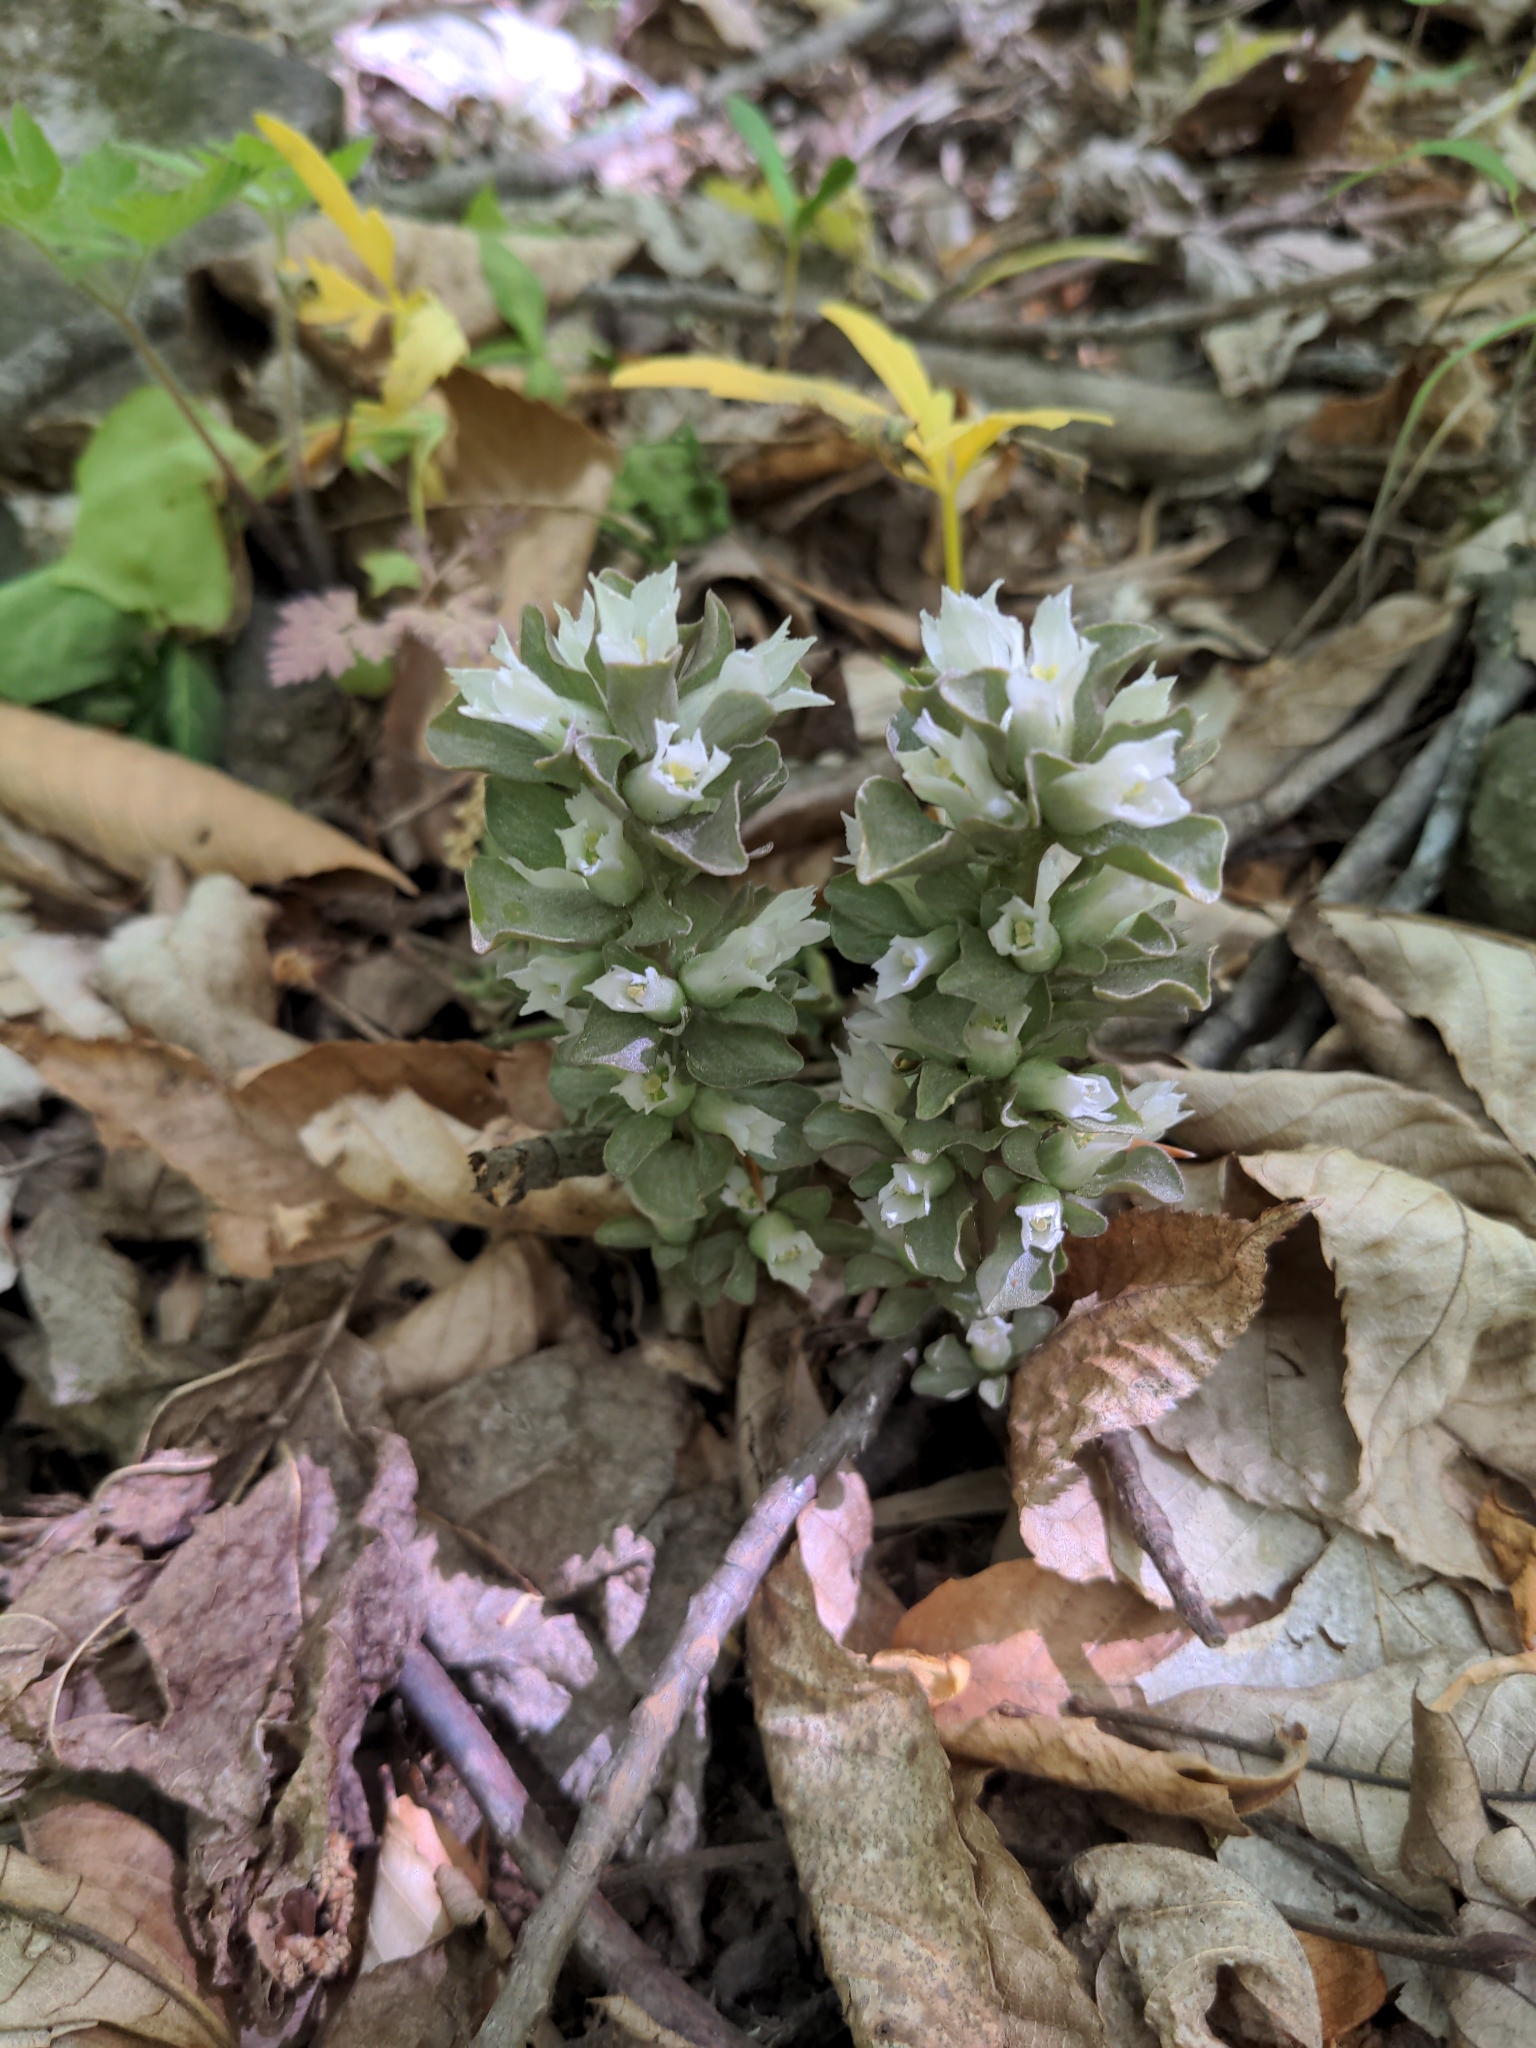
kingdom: Plantae
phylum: Tracheophyta
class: Magnoliopsida
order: Gentianales
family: Gentianaceae
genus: Obolaria
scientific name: Obolaria virginica
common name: Pennywort
